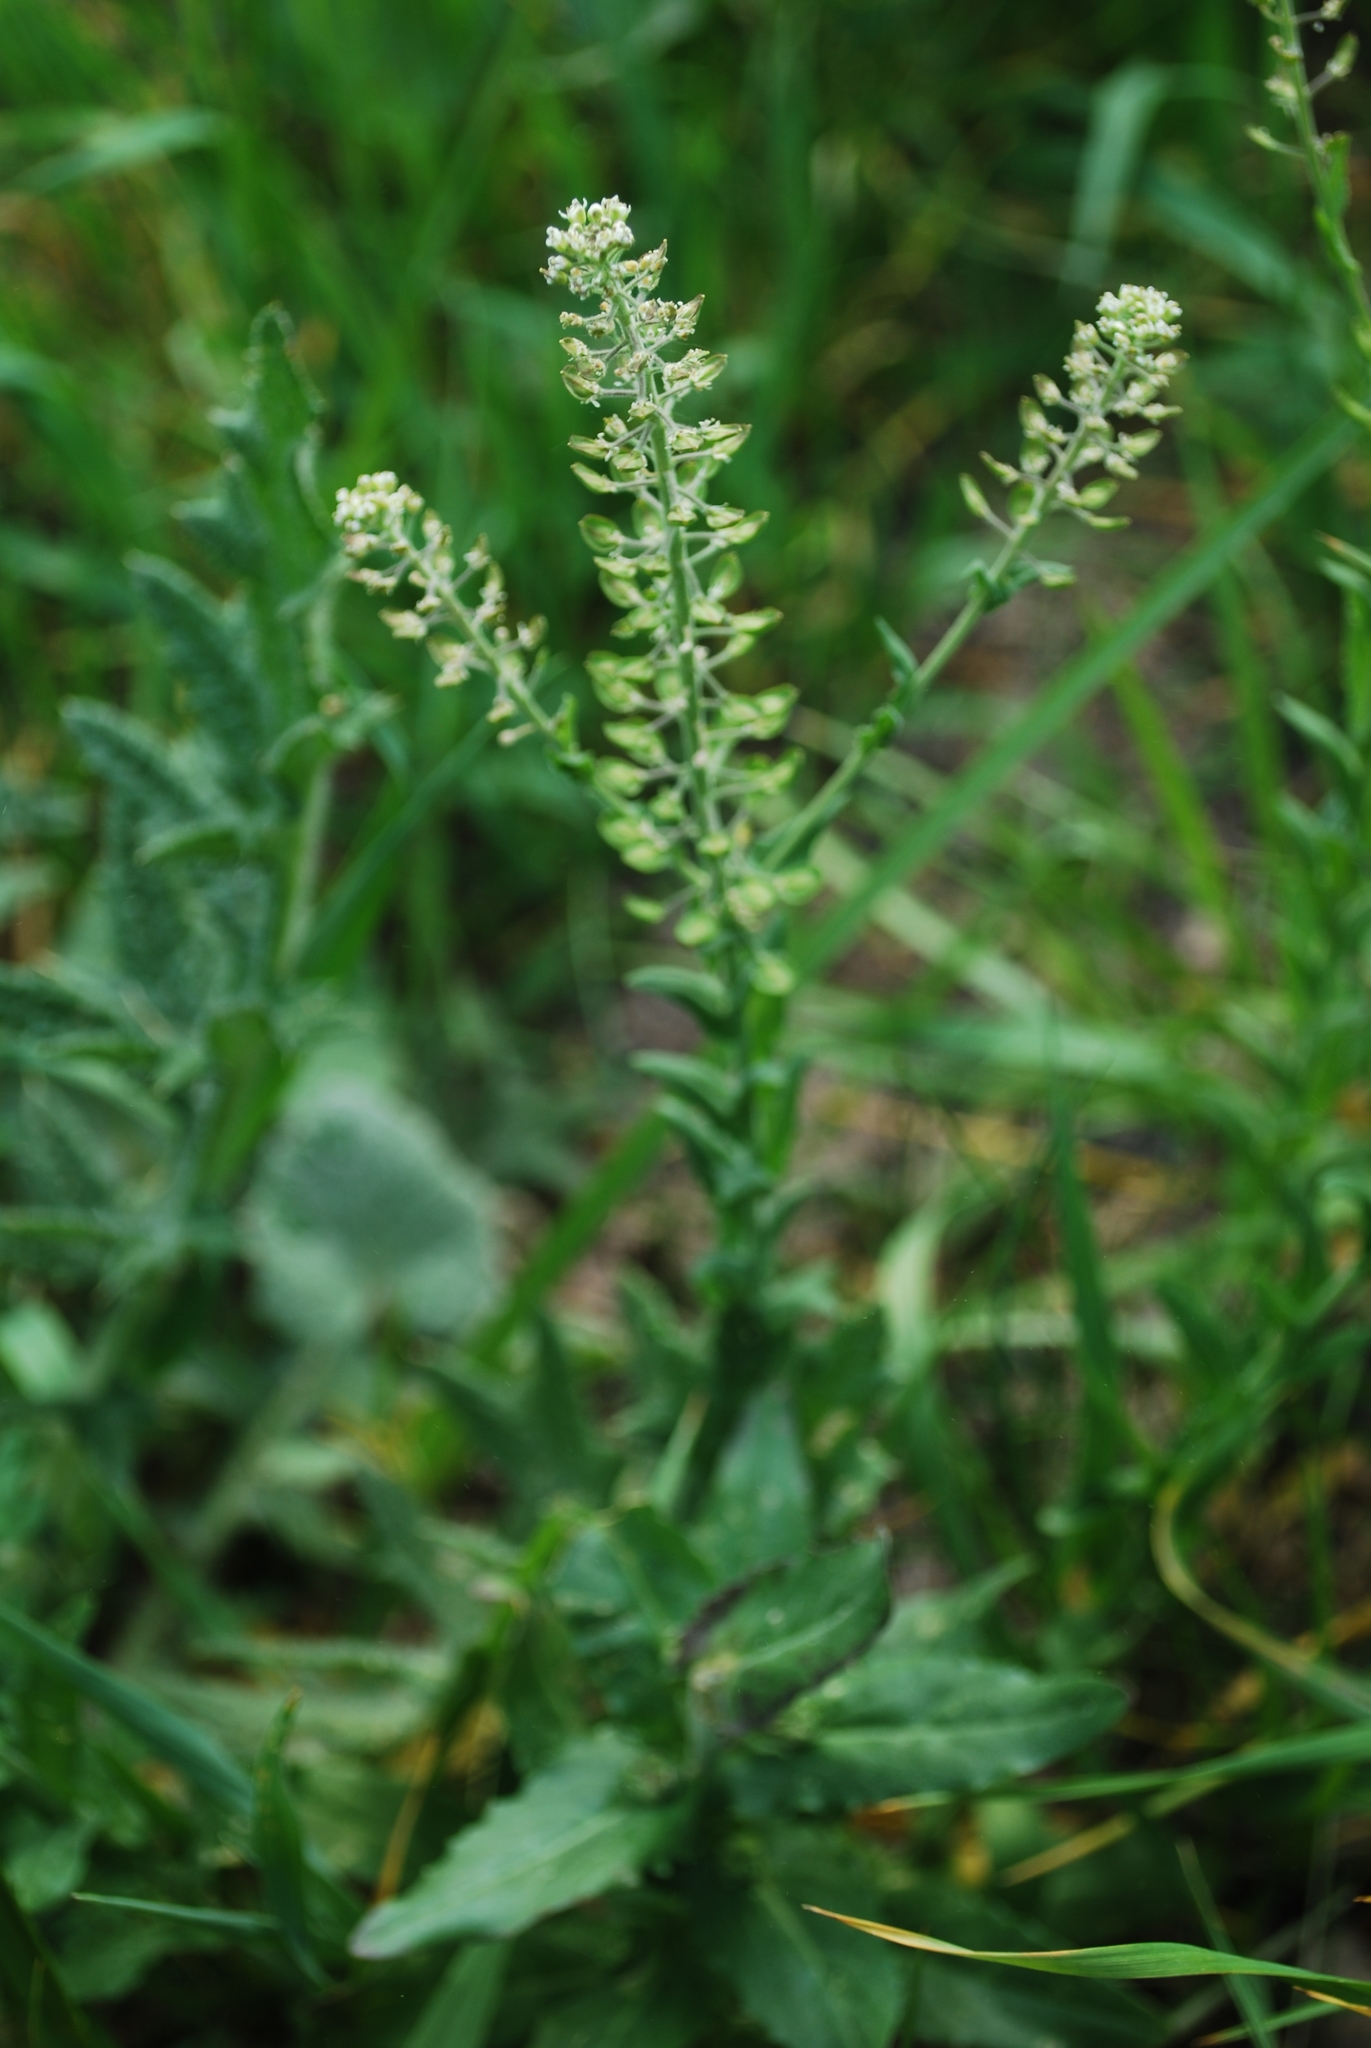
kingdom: Plantae
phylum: Tracheophyta
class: Magnoliopsida
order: Brassicales
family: Brassicaceae
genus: Lepidium
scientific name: Lepidium campestre
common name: Field pepperwort
